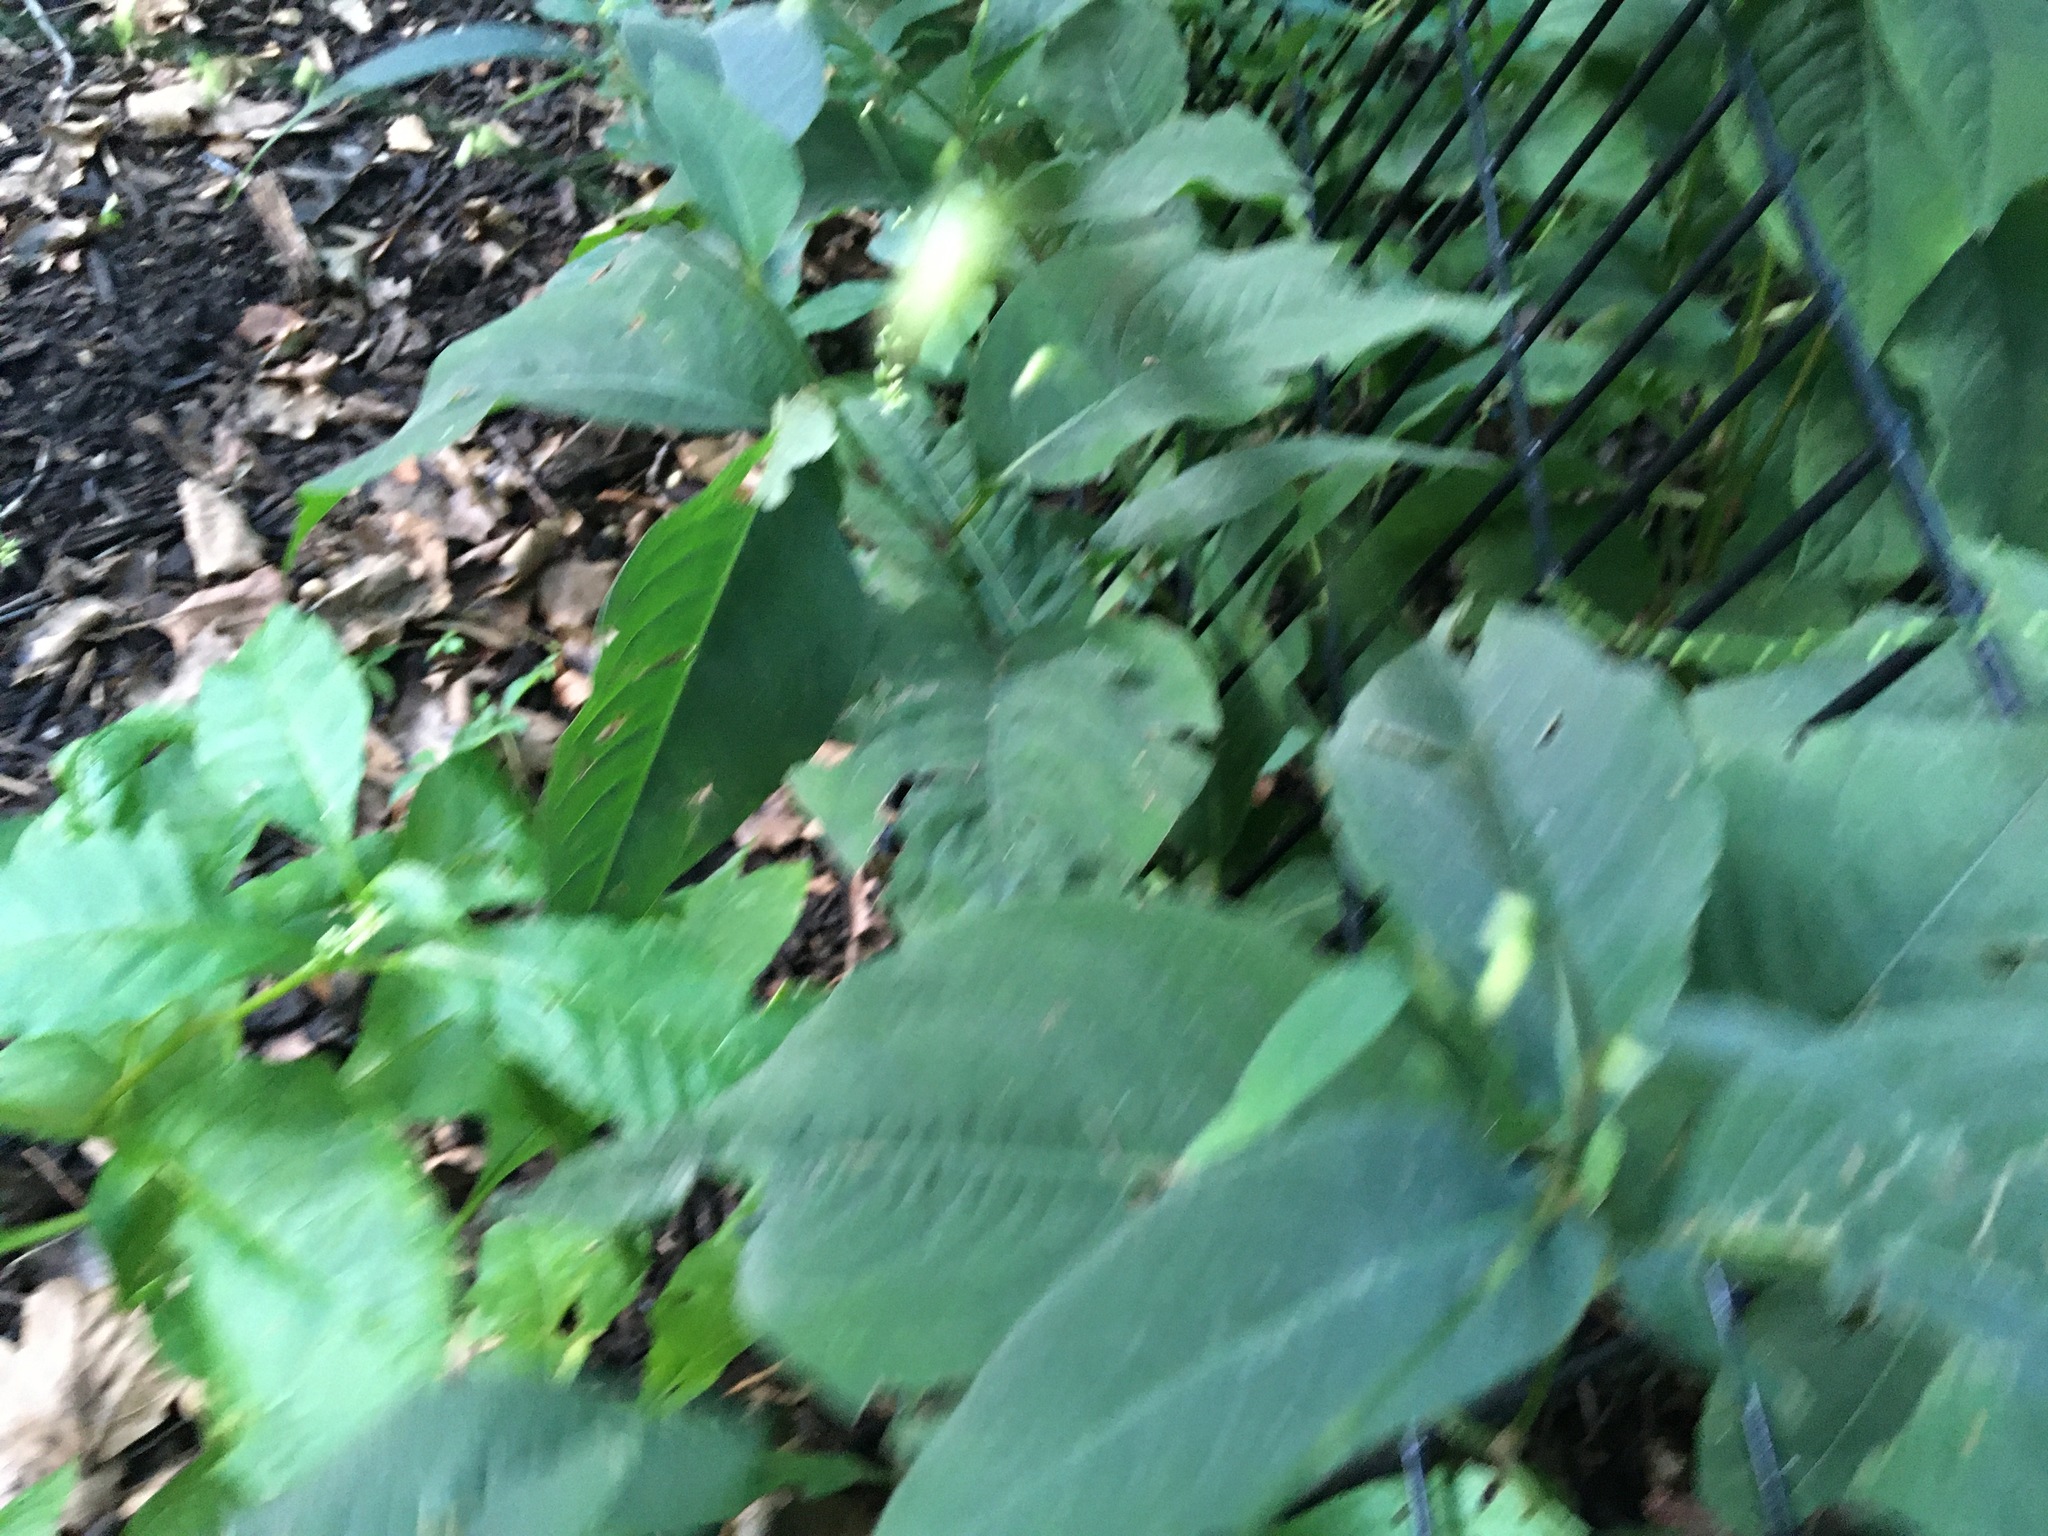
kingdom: Plantae
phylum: Tracheophyta
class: Magnoliopsida
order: Caryophyllales
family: Polygonaceae
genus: Persicaria
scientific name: Persicaria virginiana
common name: Jumpseed
